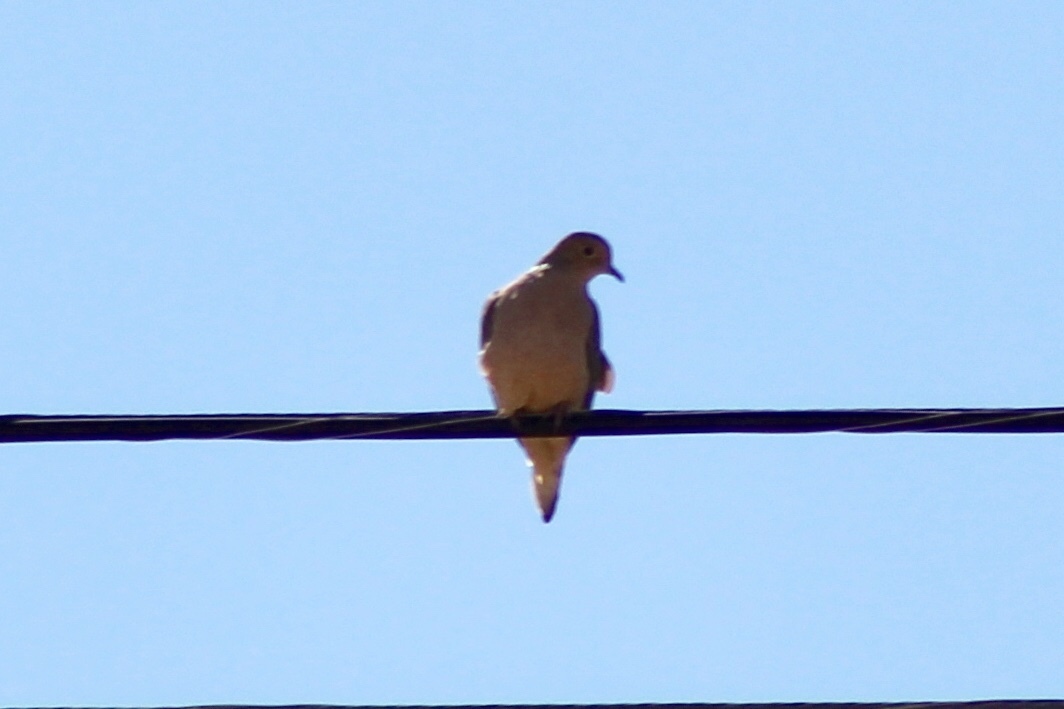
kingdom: Animalia
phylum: Chordata
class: Aves
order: Columbiformes
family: Columbidae
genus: Zenaida
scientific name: Zenaida macroura
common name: Mourning dove
